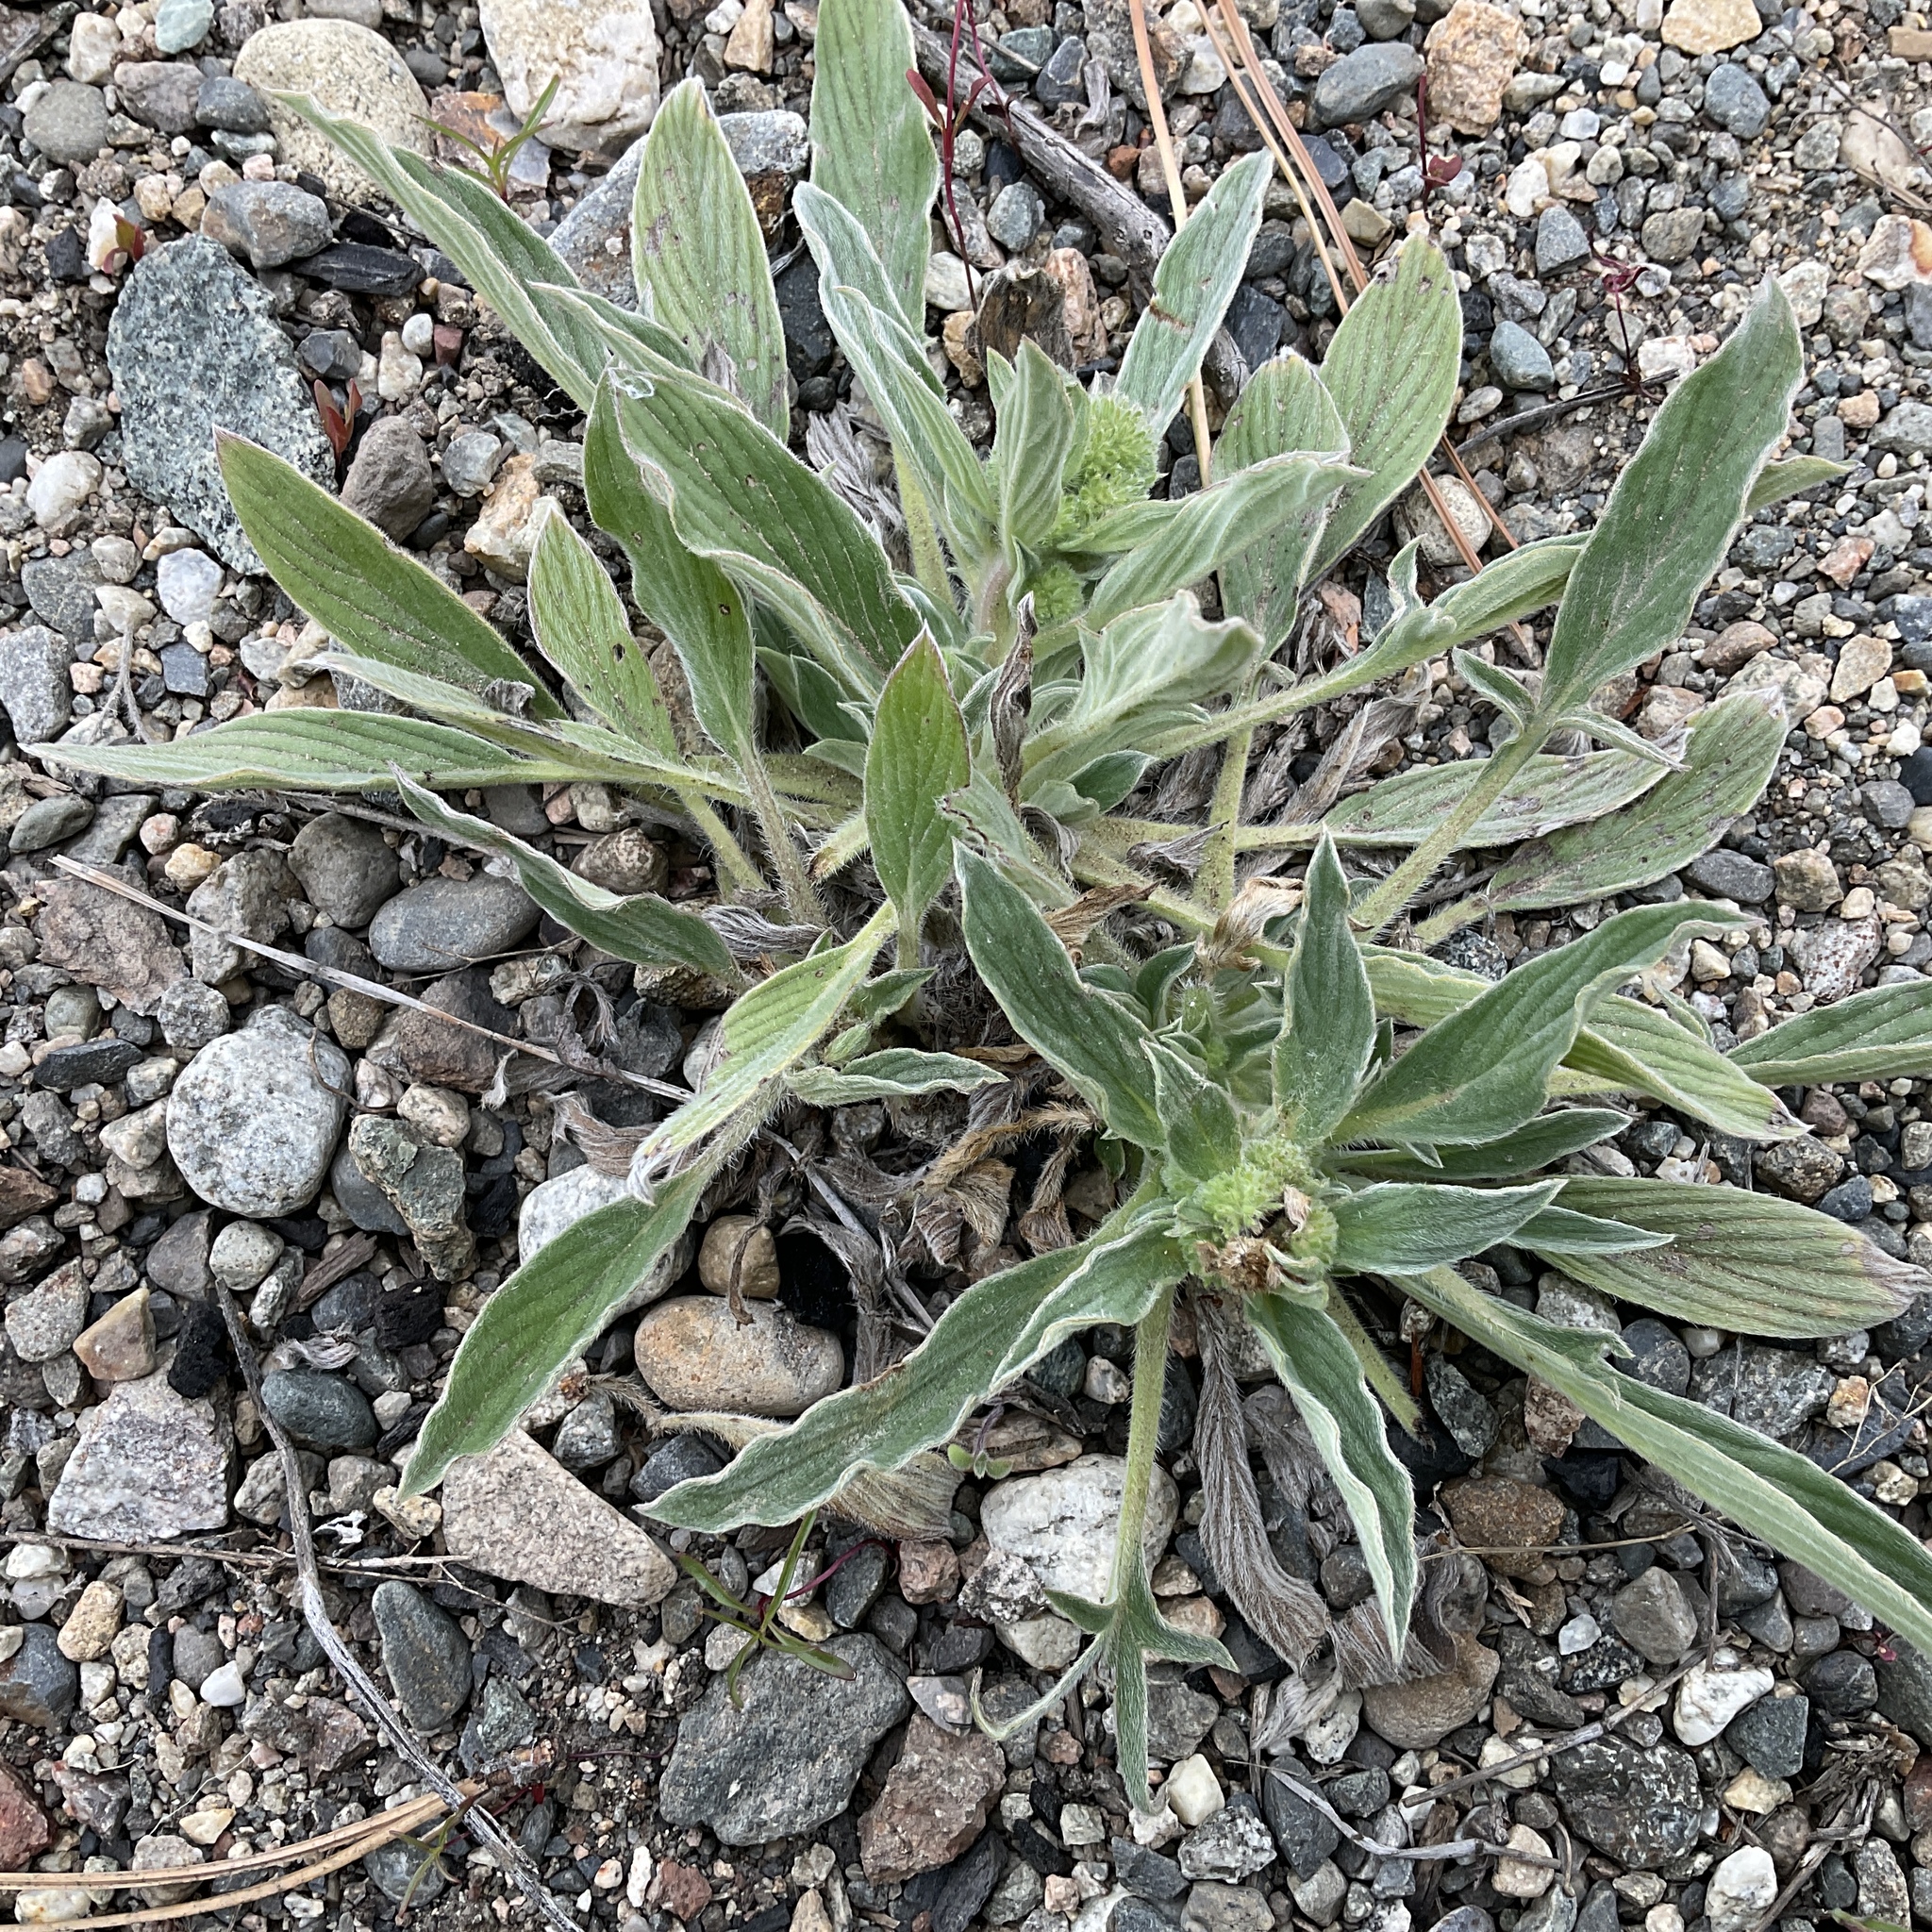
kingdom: Plantae
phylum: Tracheophyta
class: Magnoliopsida
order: Boraginales
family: Hydrophyllaceae
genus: Phacelia
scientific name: Phacelia hastata
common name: Silver-leaved phacelia
